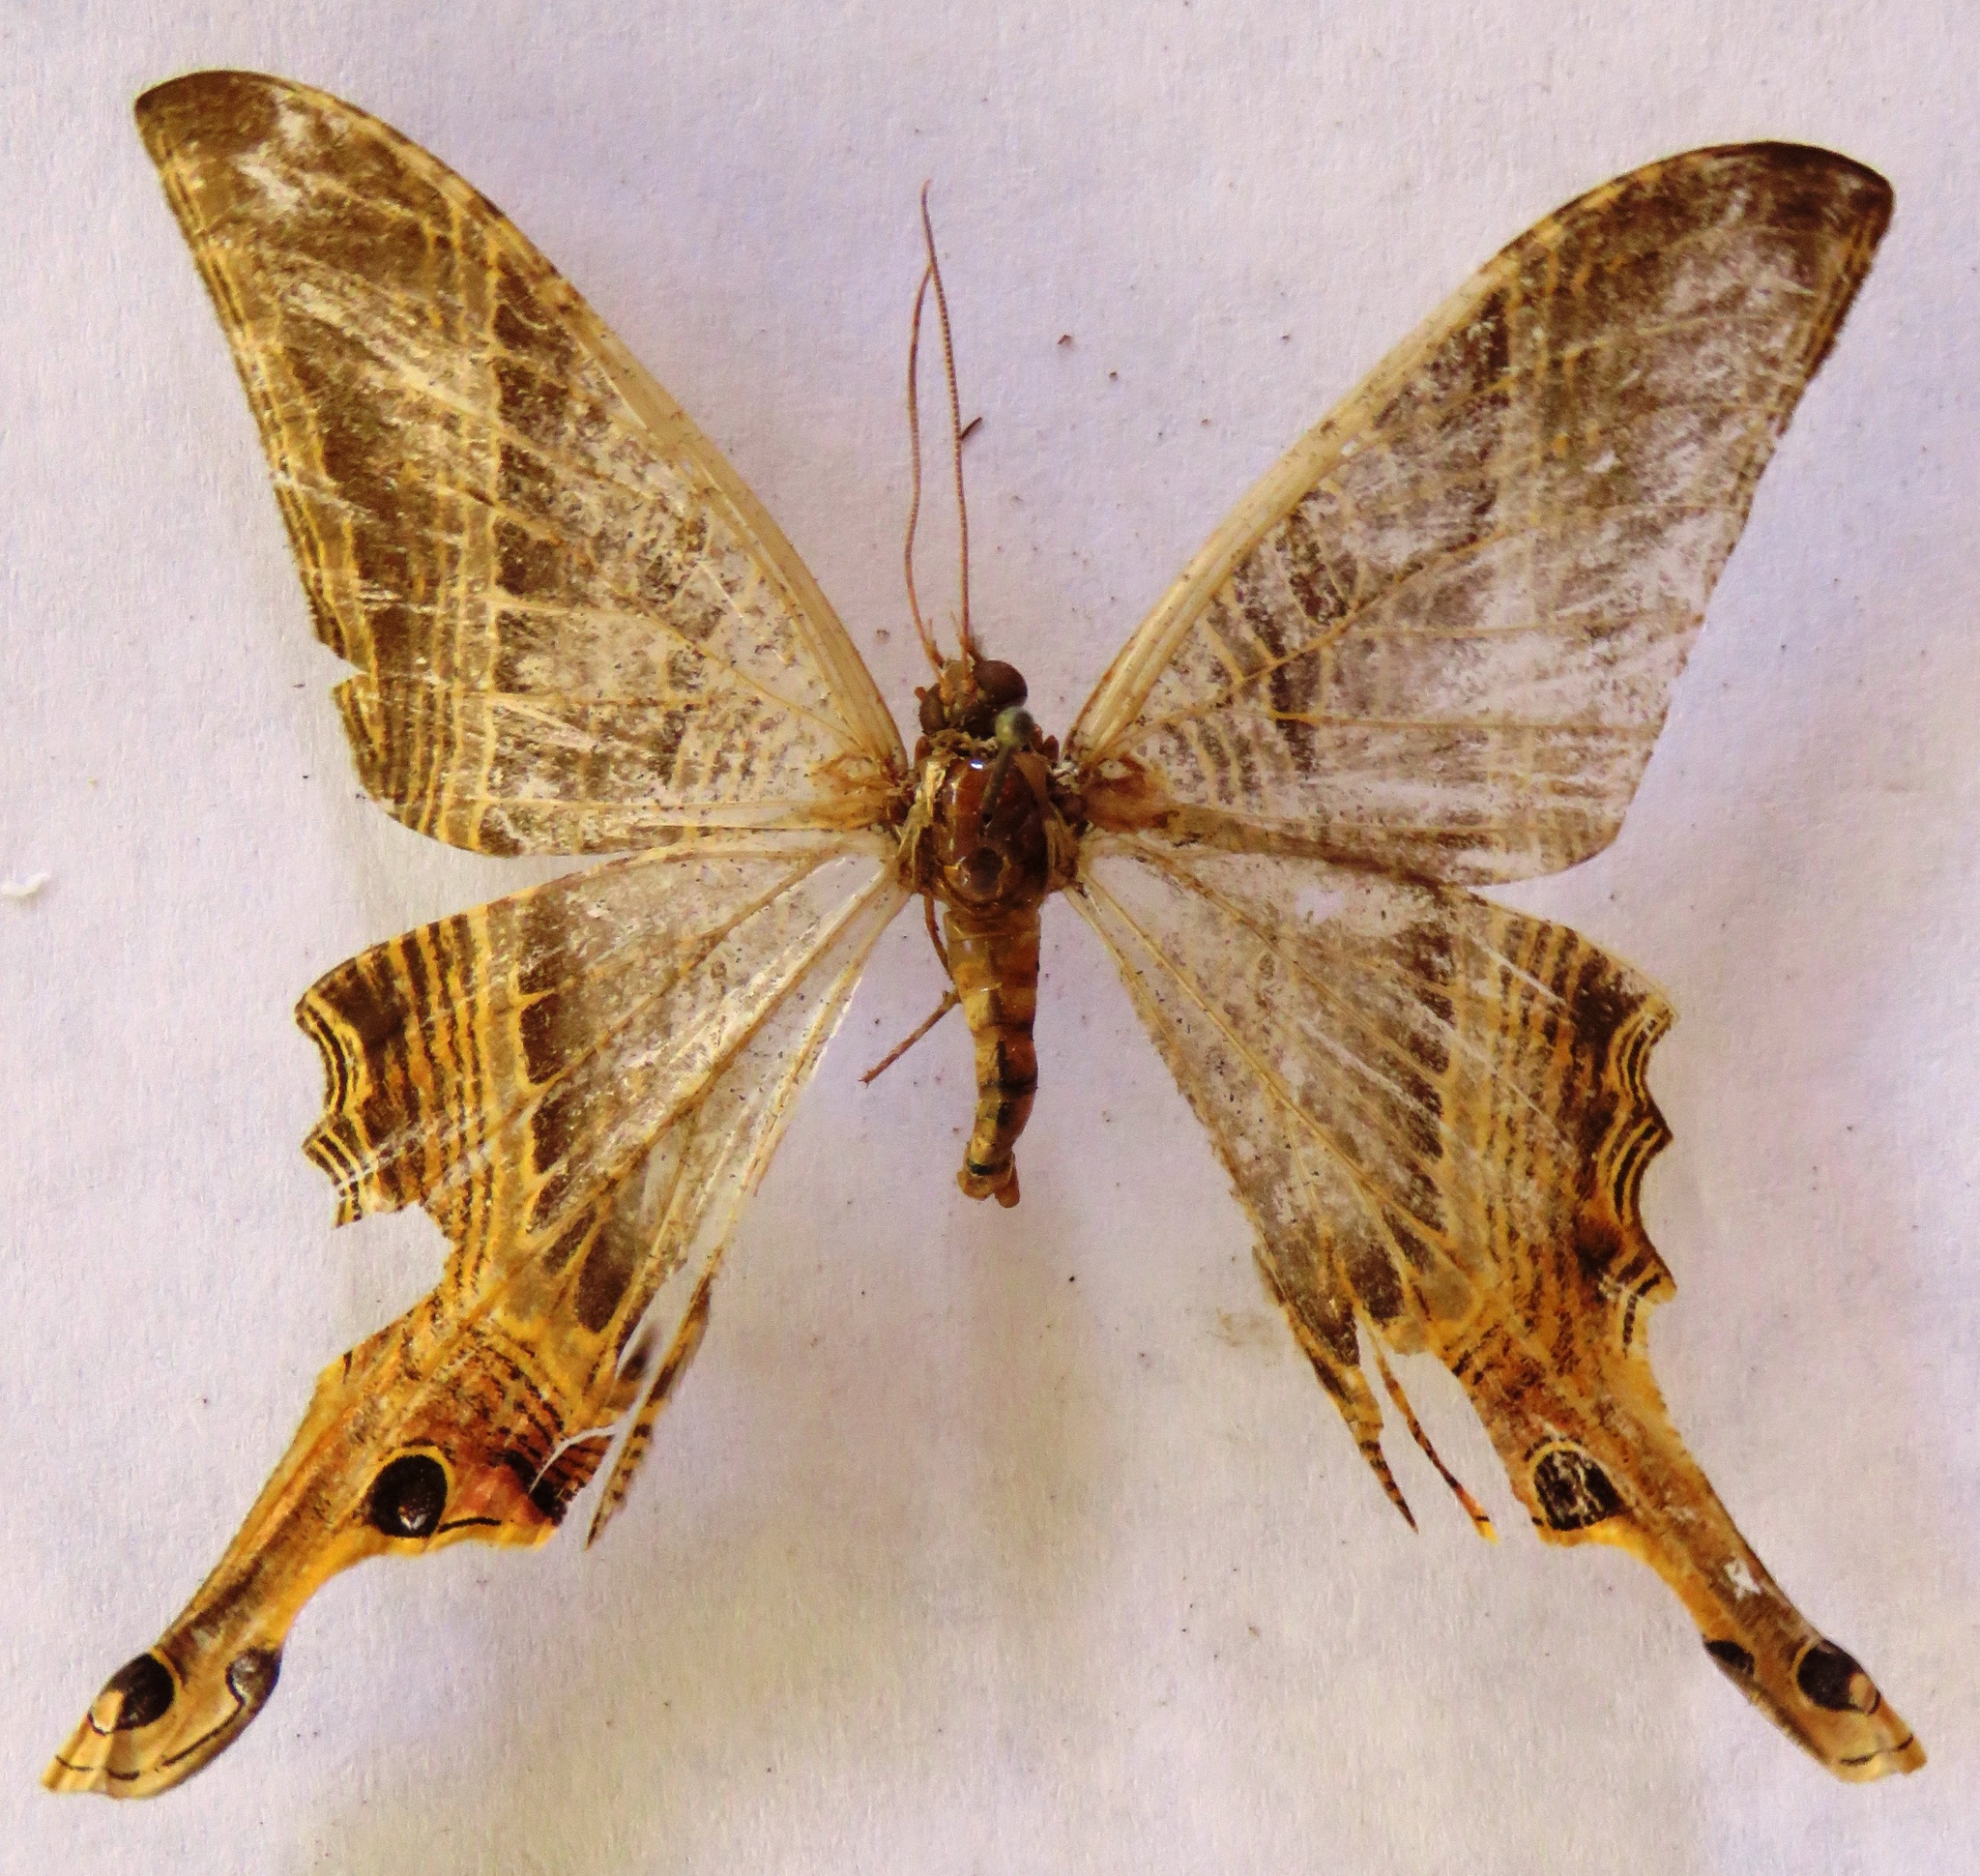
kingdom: Animalia
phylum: Arthropoda
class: Insecta
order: Lepidoptera
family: Sematuridae
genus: Nothus
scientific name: Nothus lunus
